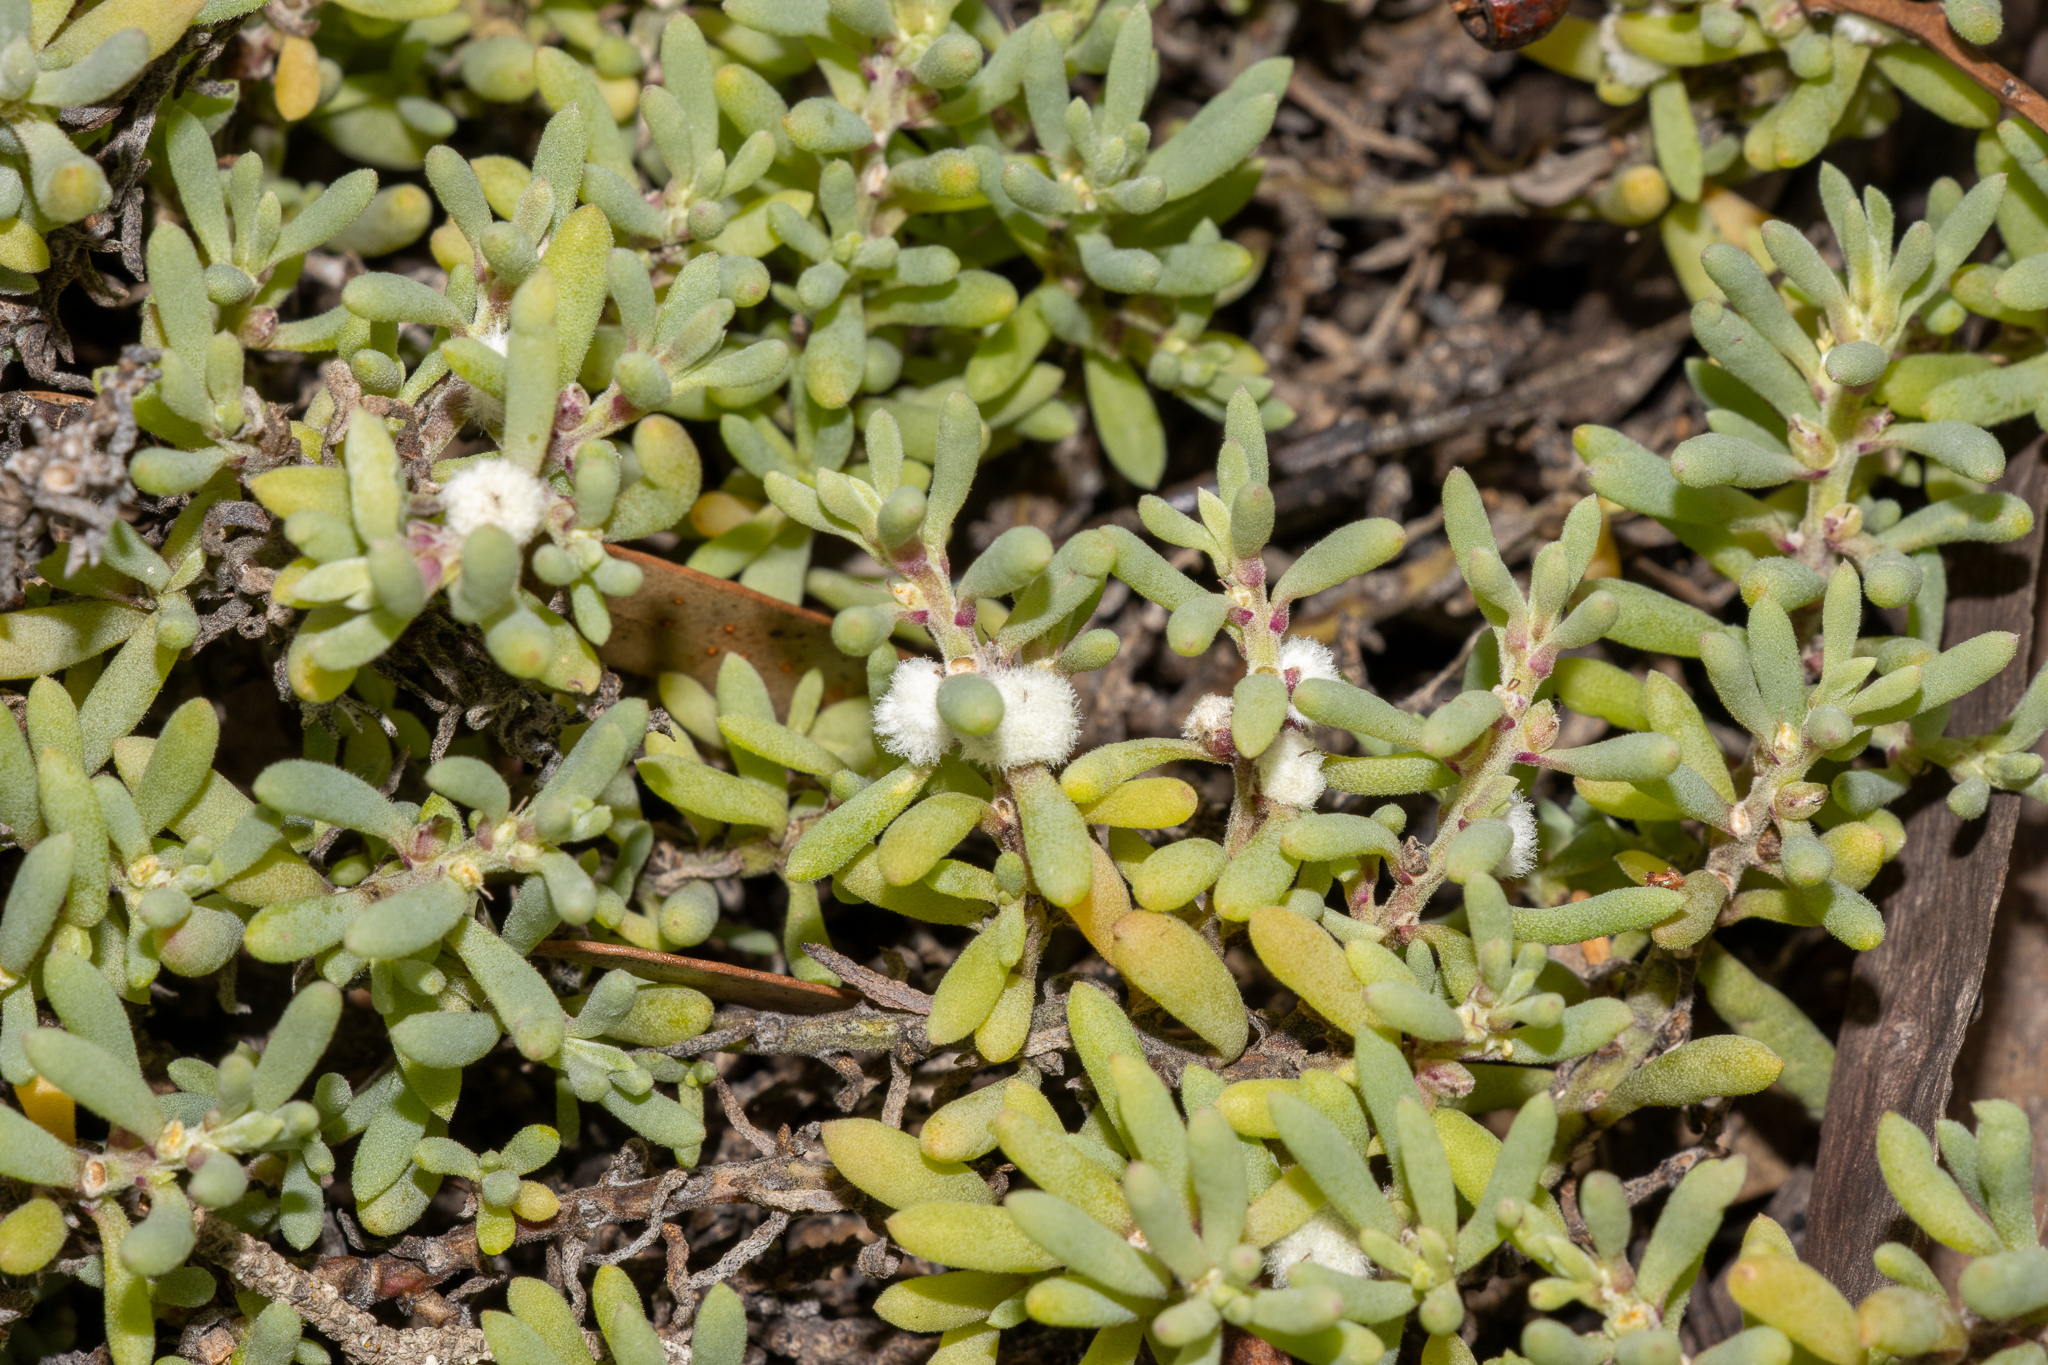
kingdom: Plantae
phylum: Tracheophyta
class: Magnoliopsida
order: Caryophyllales
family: Amaranthaceae
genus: Sclerolaena
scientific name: Sclerolaena uniflora
